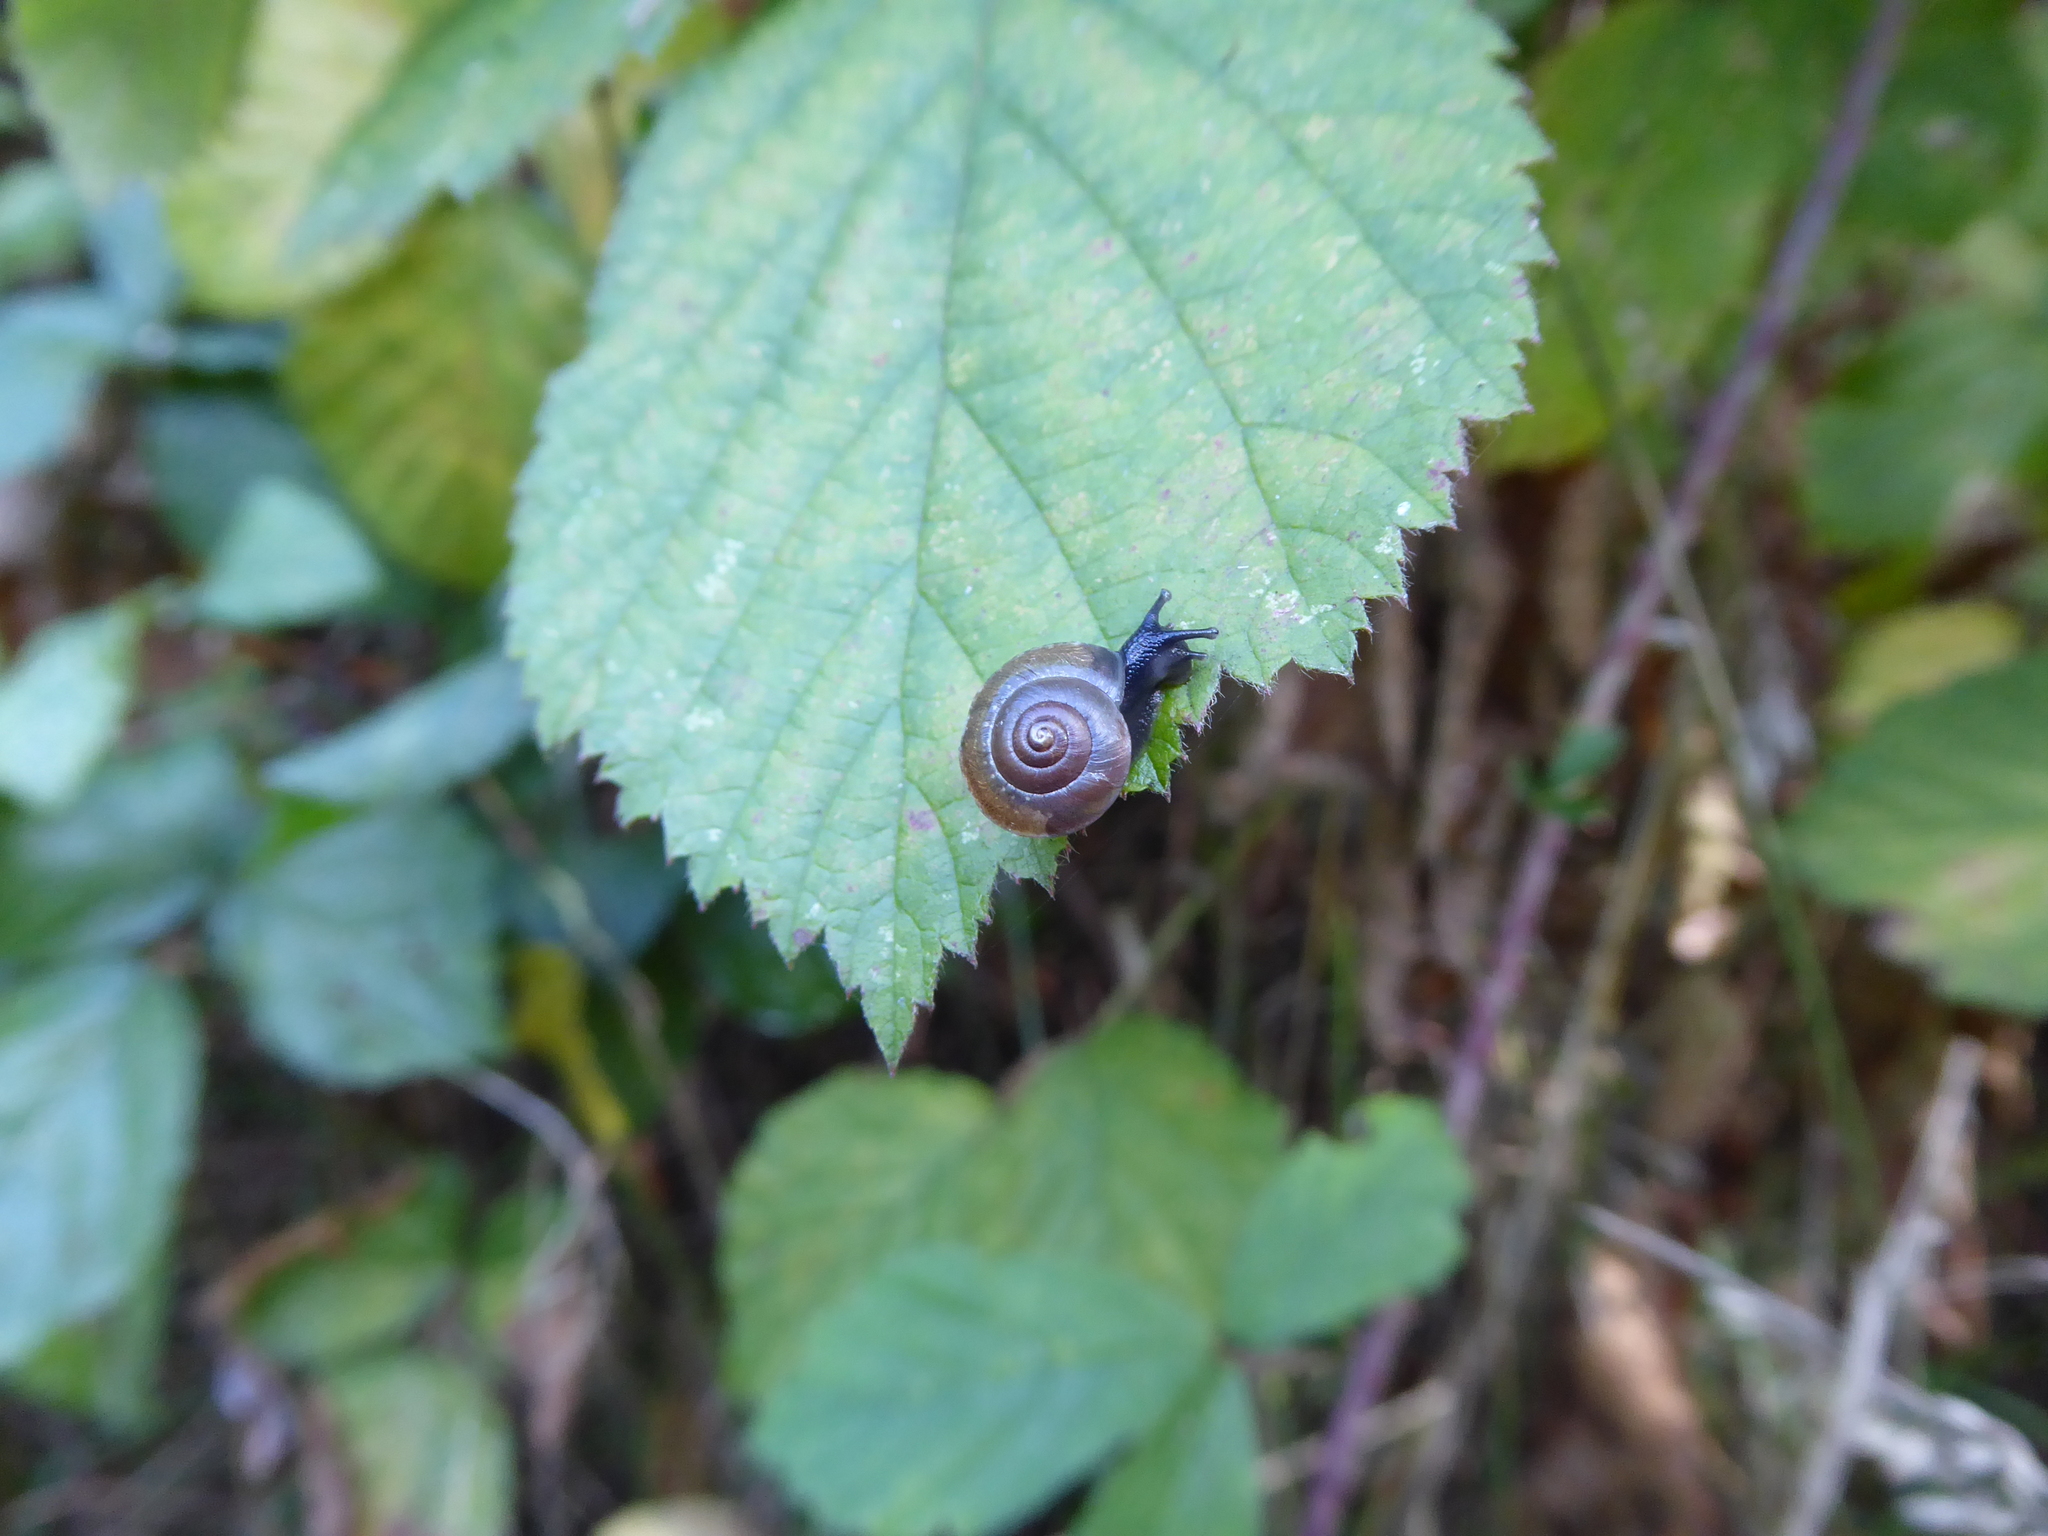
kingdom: Animalia
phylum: Mollusca
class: Gastropoda
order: Stylommatophora
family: Hygromiidae
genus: Hygromia
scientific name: Hygromia cinctella
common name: Girdled snail
